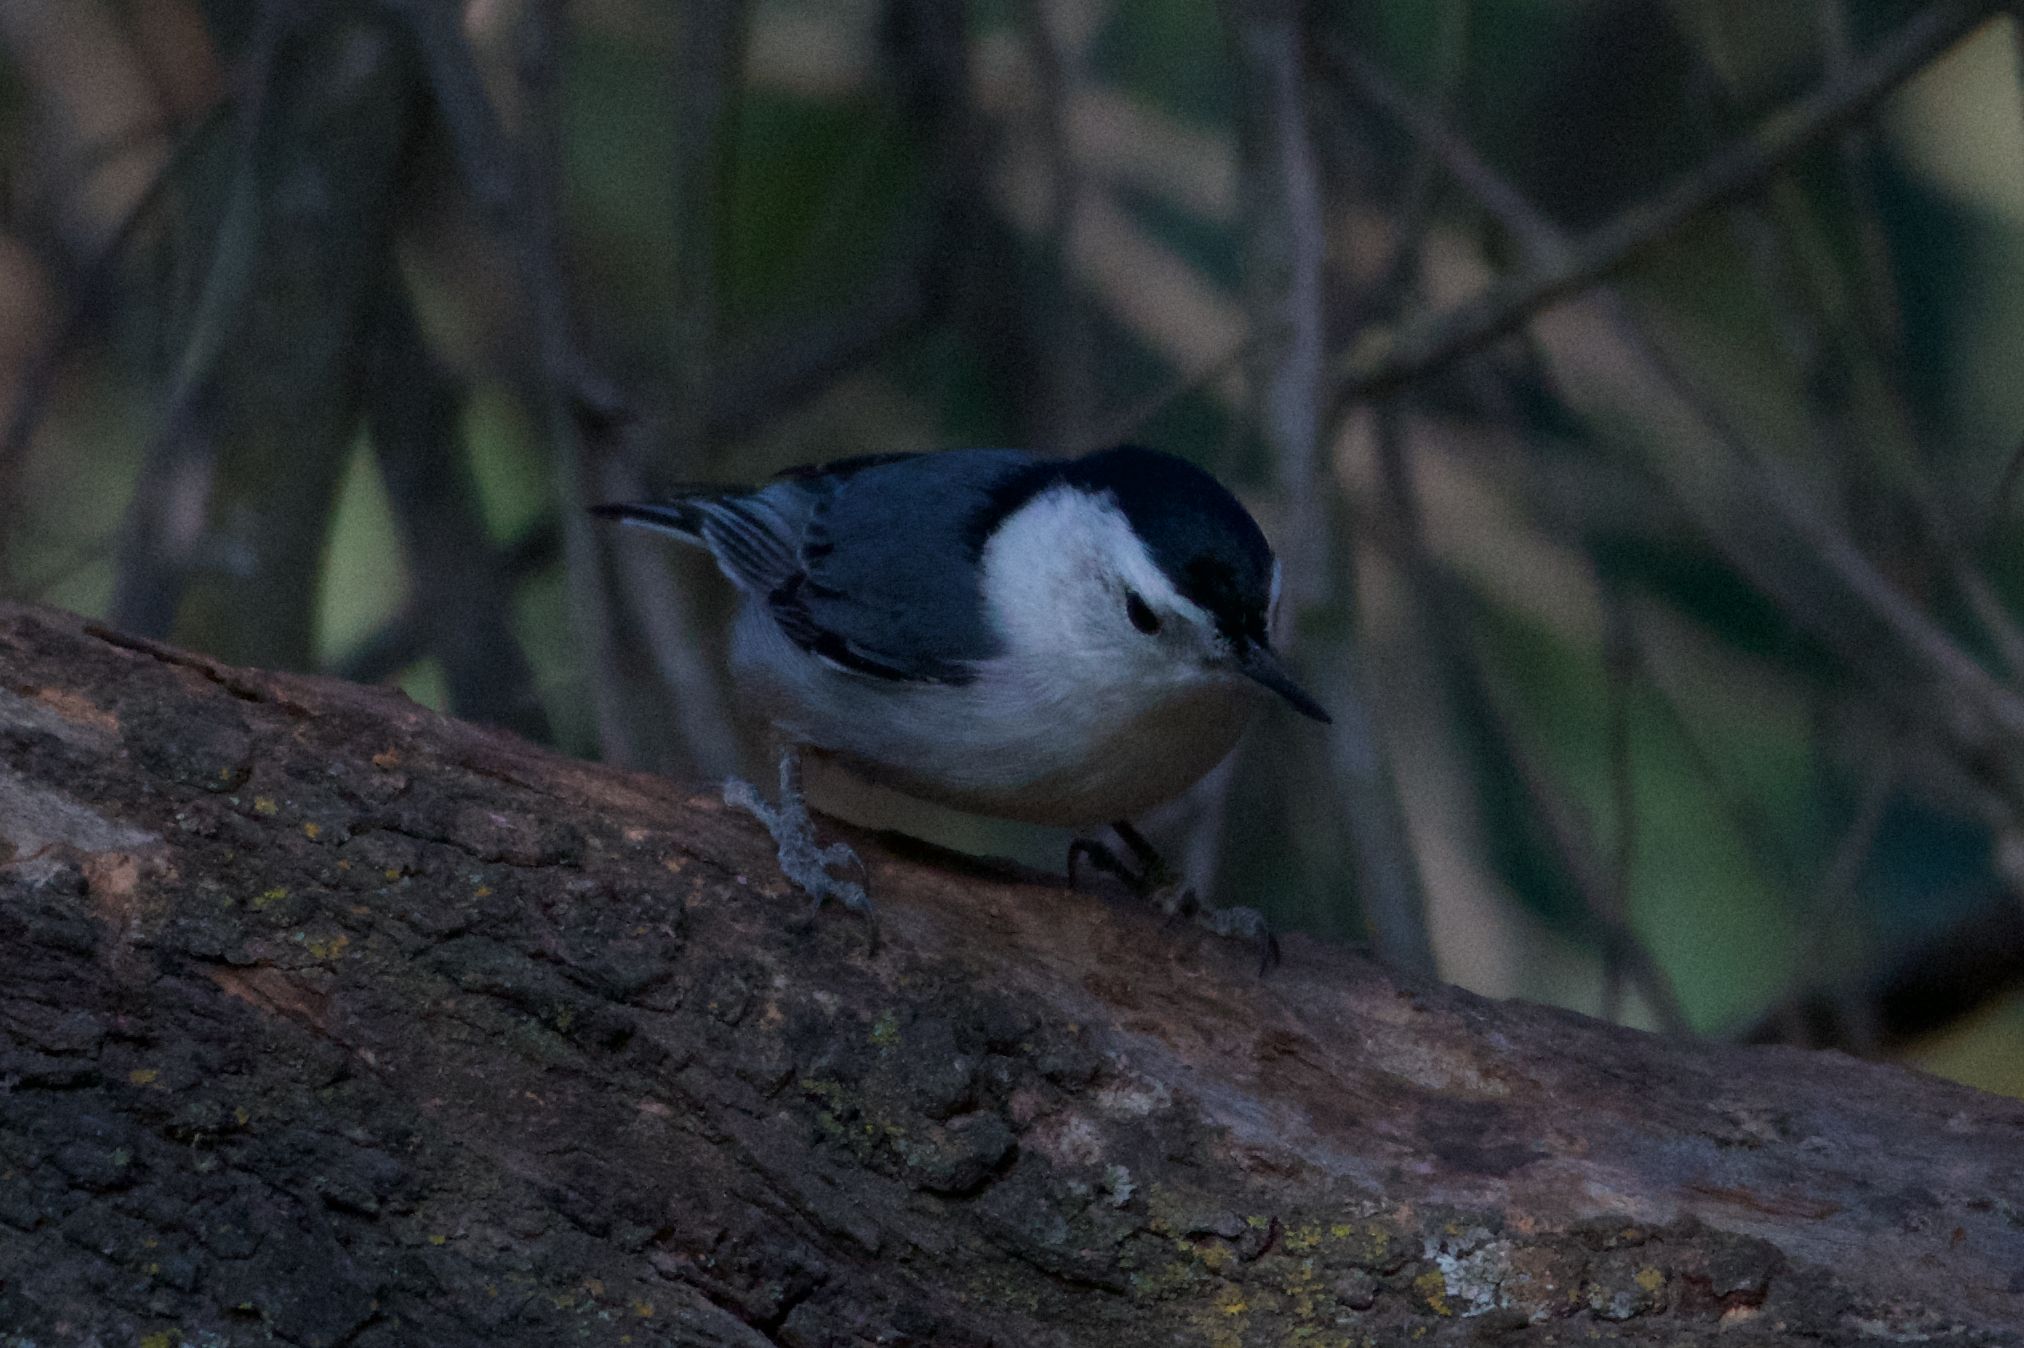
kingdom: Animalia
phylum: Chordata
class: Aves
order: Passeriformes
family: Sittidae
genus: Sitta
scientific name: Sitta carolinensis
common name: White-breasted nuthatch
